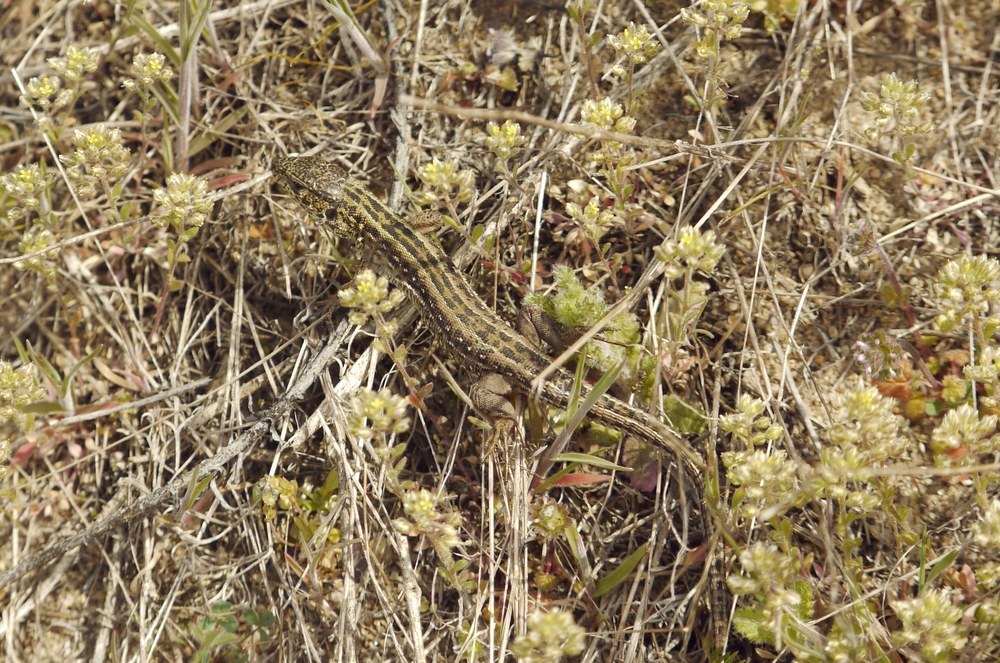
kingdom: Animalia
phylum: Chordata
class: Squamata
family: Lacertidae
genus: Lacerta
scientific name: Lacerta agilis
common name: Sand lizard
